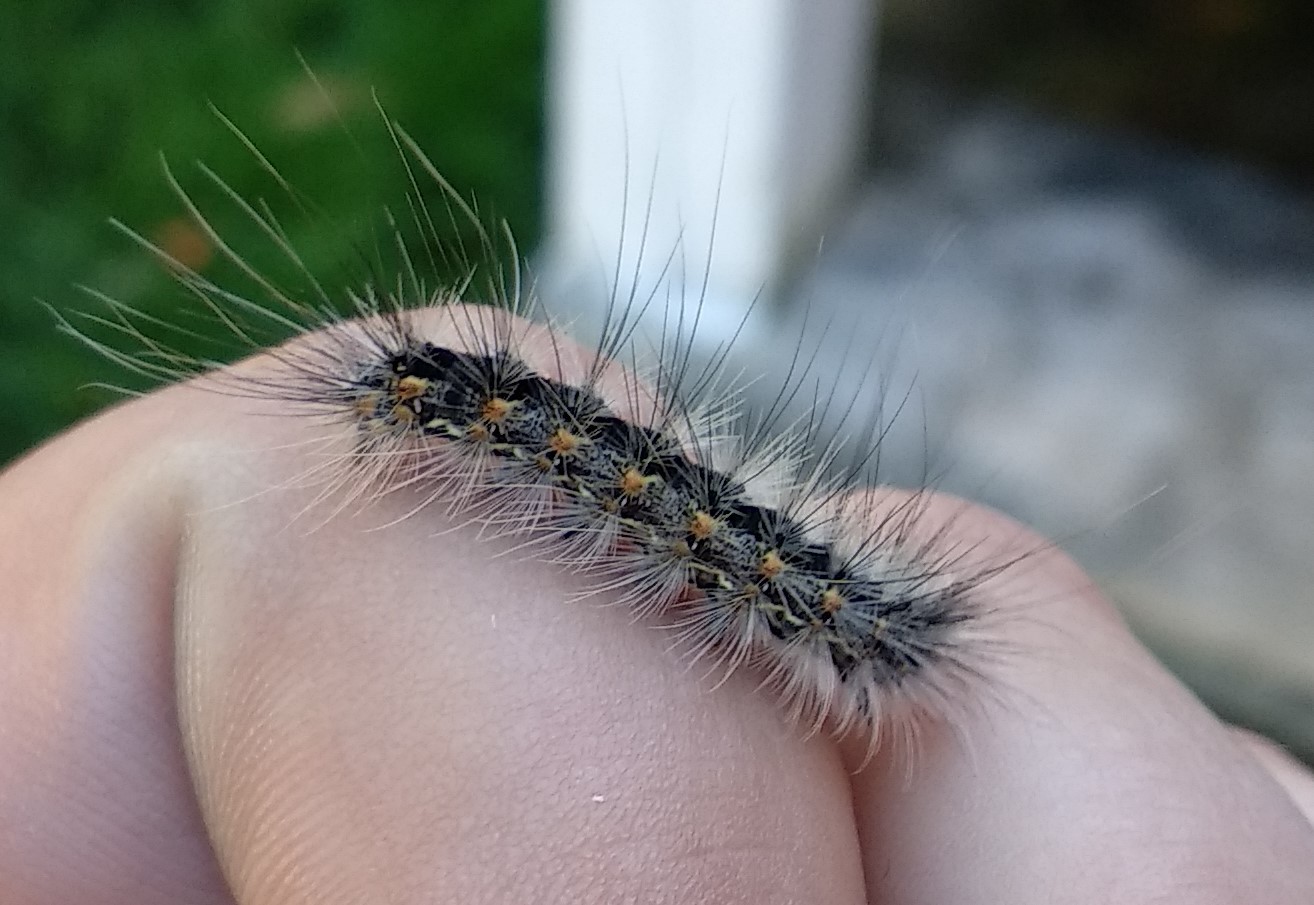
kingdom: Animalia
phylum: Arthropoda
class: Insecta
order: Lepidoptera
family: Erebidae
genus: Hyphantria
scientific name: Hyphantria cunea
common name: American white moth
